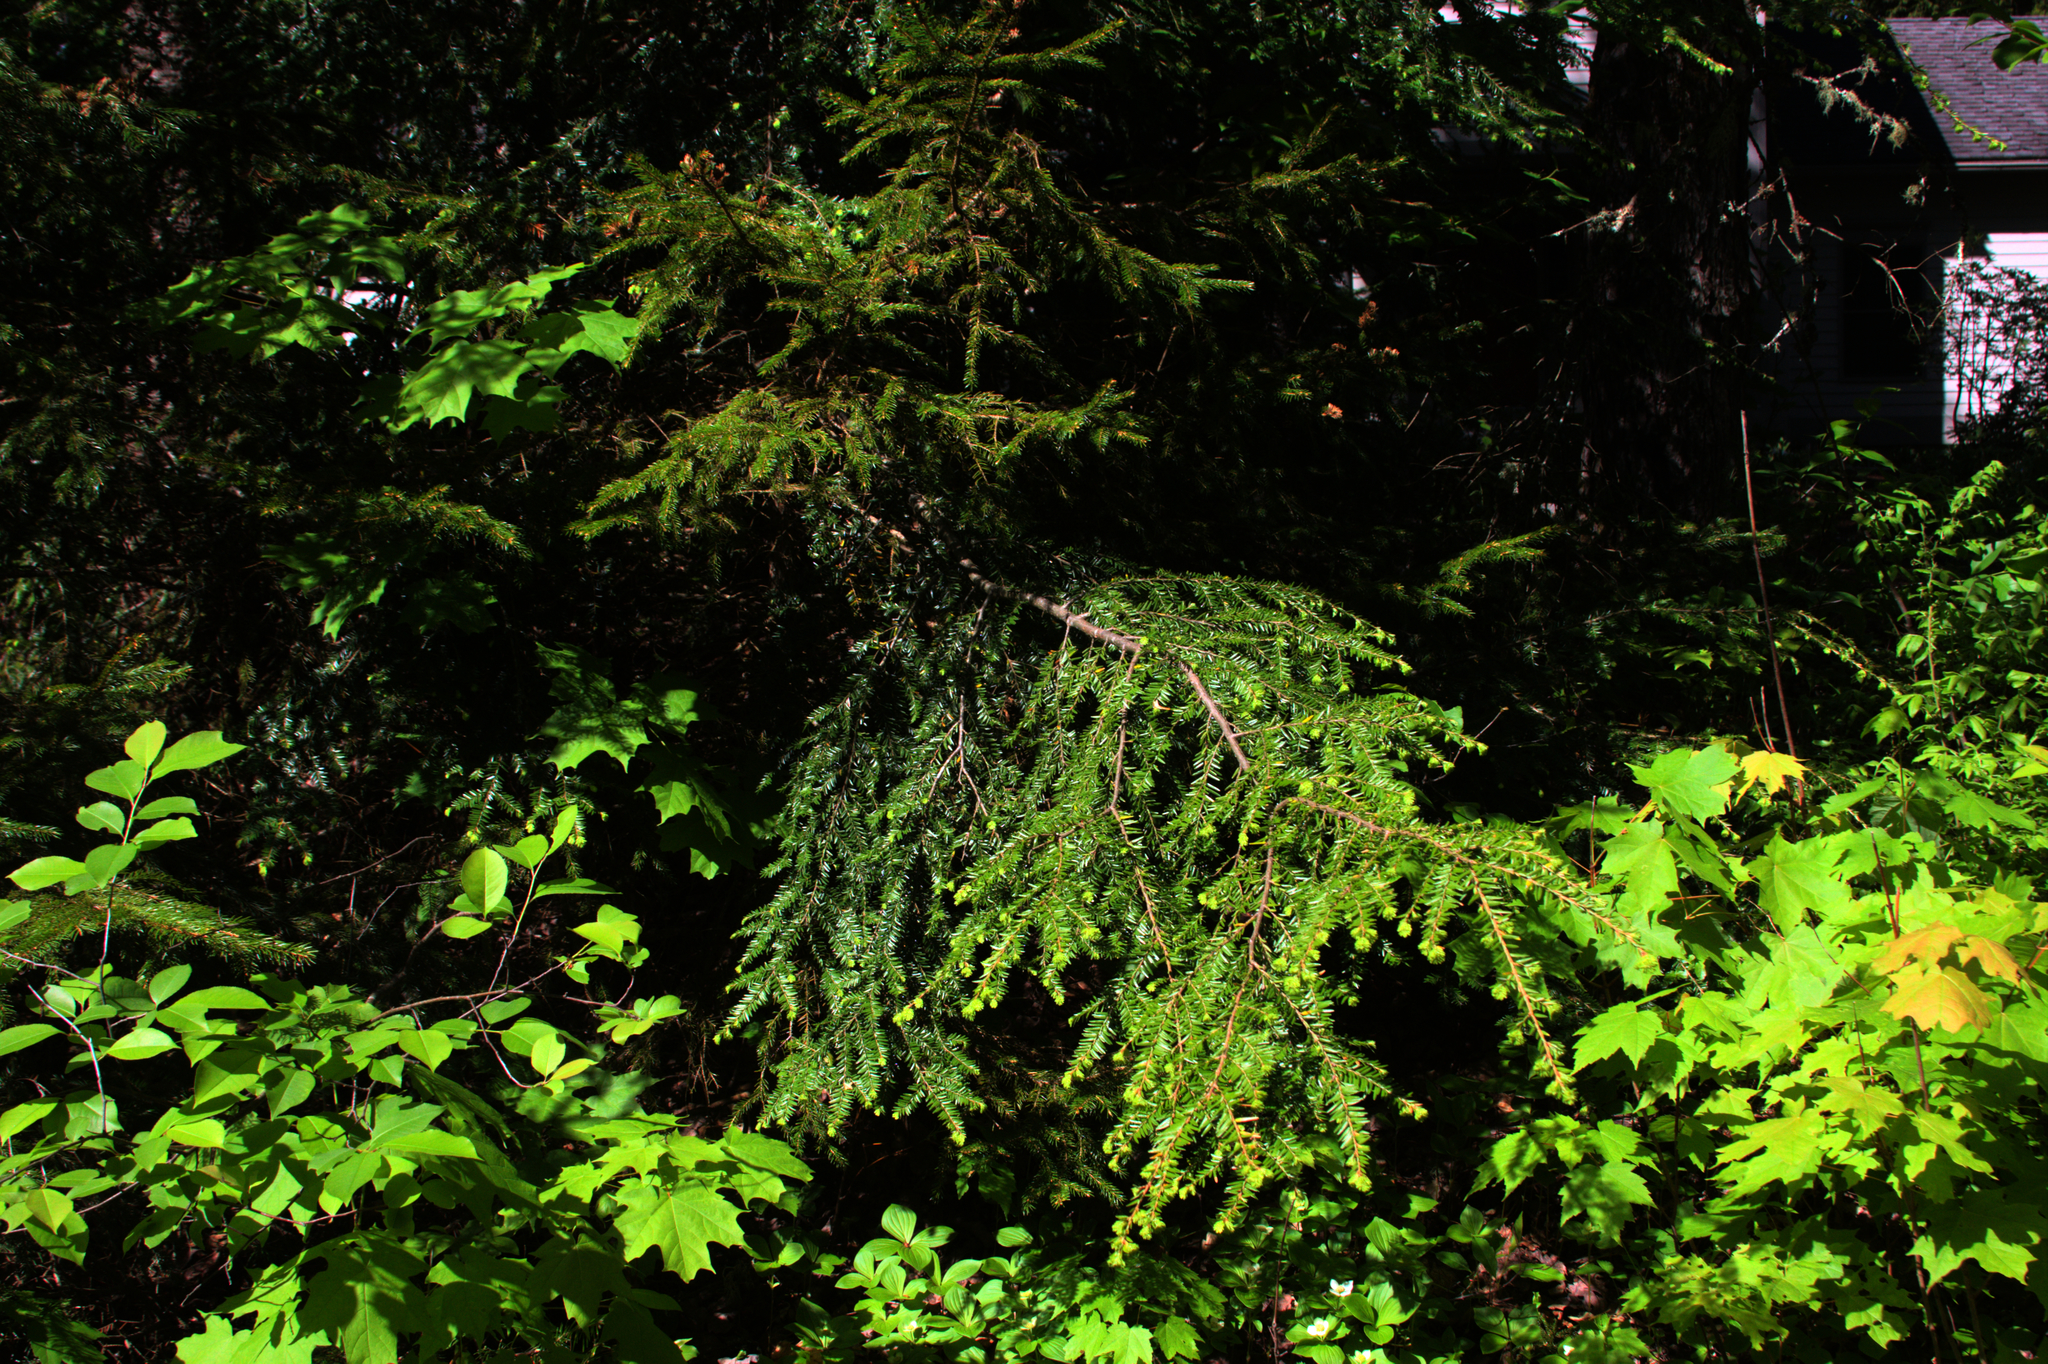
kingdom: Plantae
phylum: Tracheophyta
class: Pinopsida
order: Pinales
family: Pinaceae
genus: Tsuga
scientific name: Tsuga canadensis
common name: Eastern hemlock
